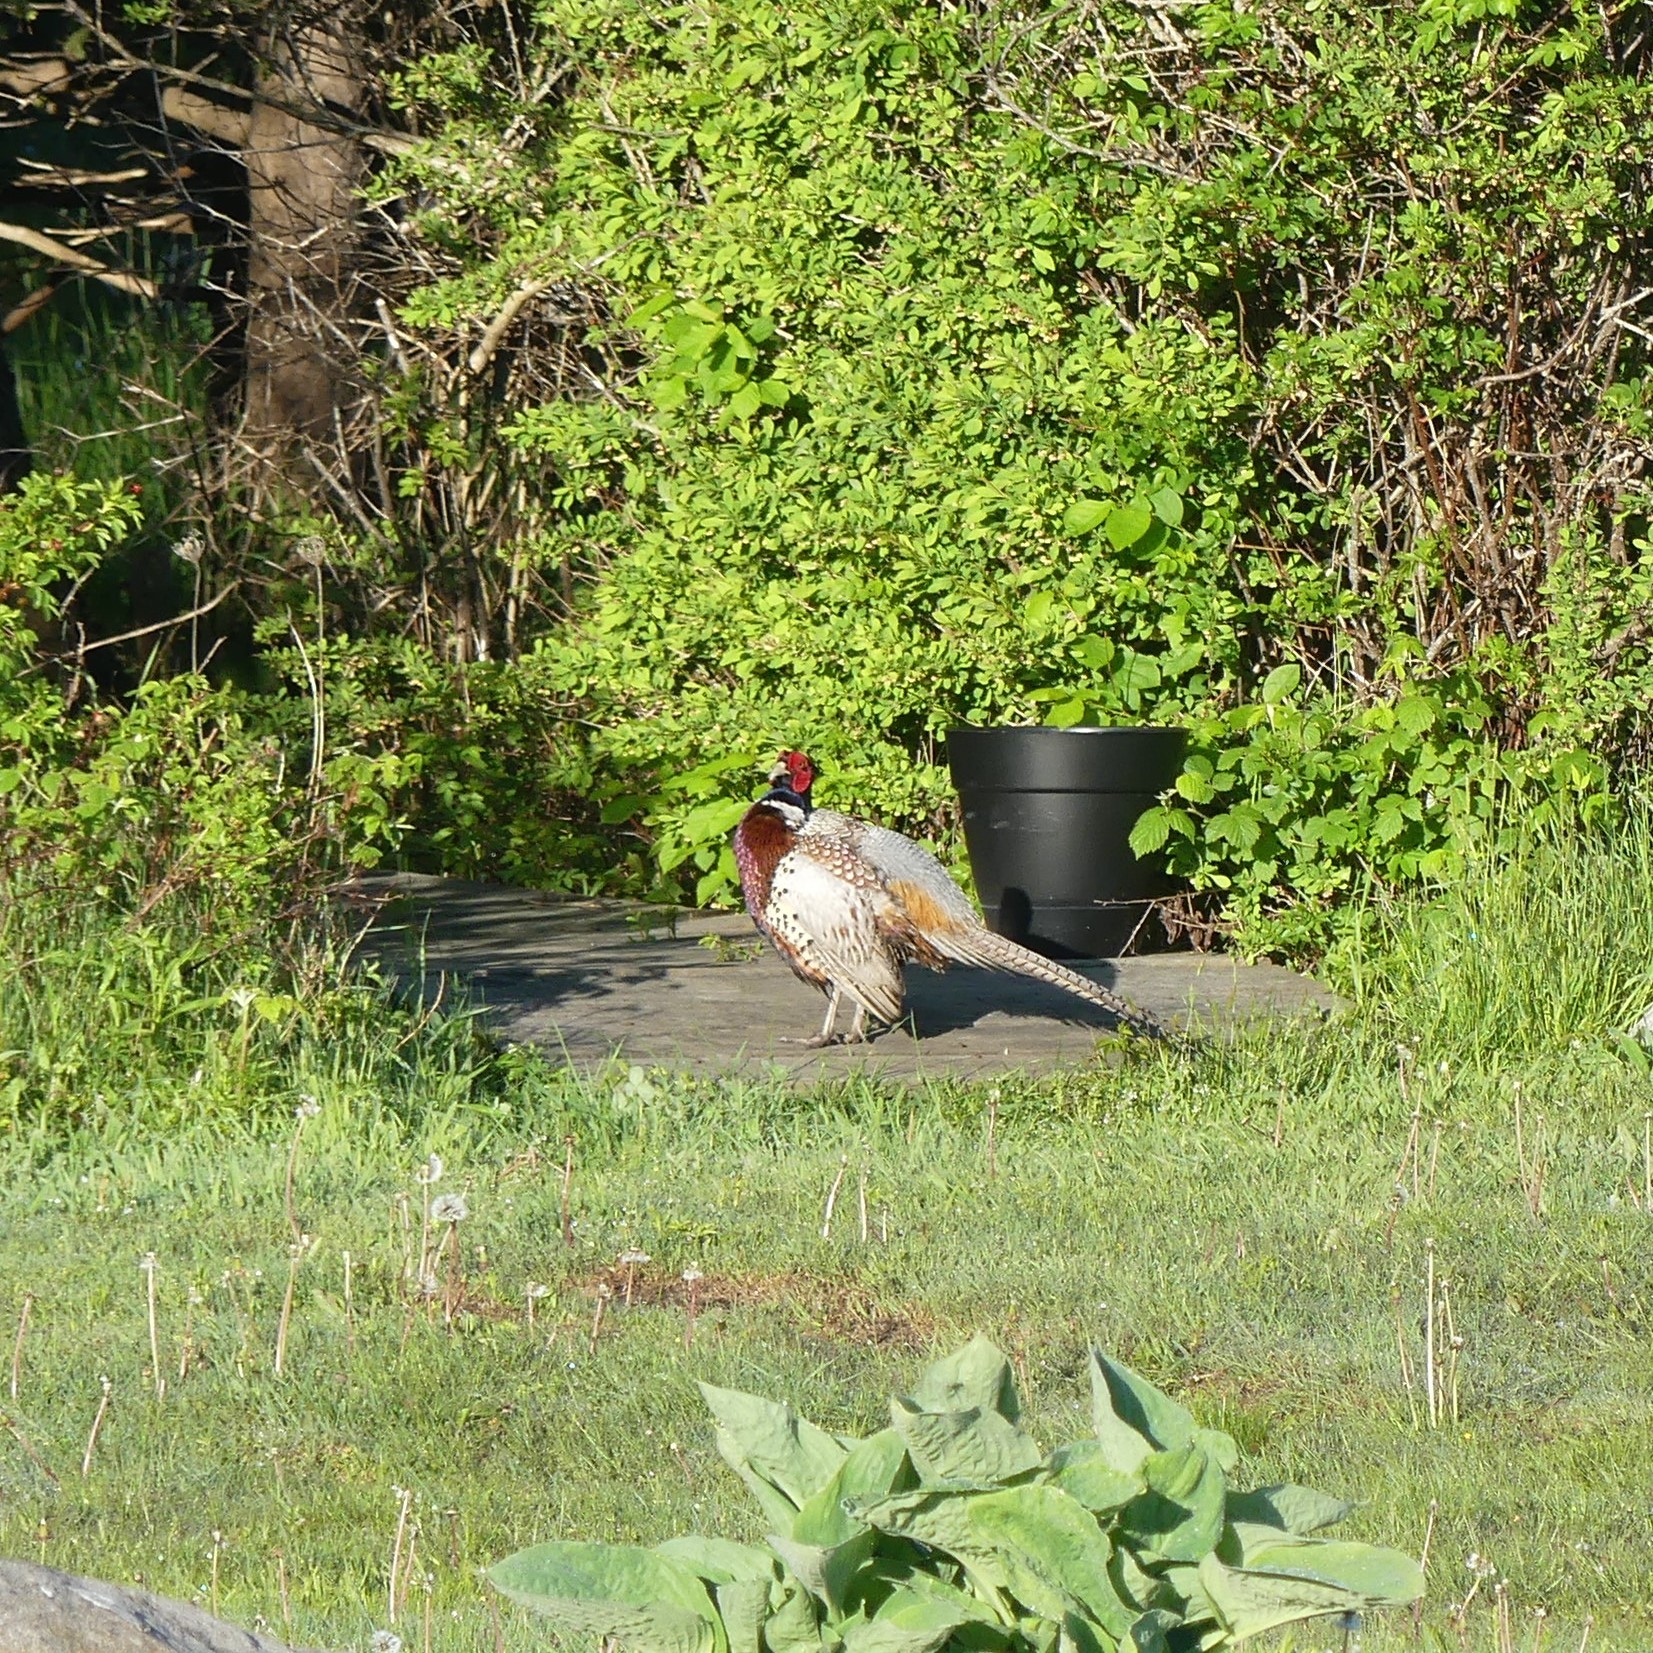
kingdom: Animalia
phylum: Chordata
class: Aves
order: Galliformes
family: Phasianidae
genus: Phasianus
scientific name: Phasianus colchicus
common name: Common pheasant
